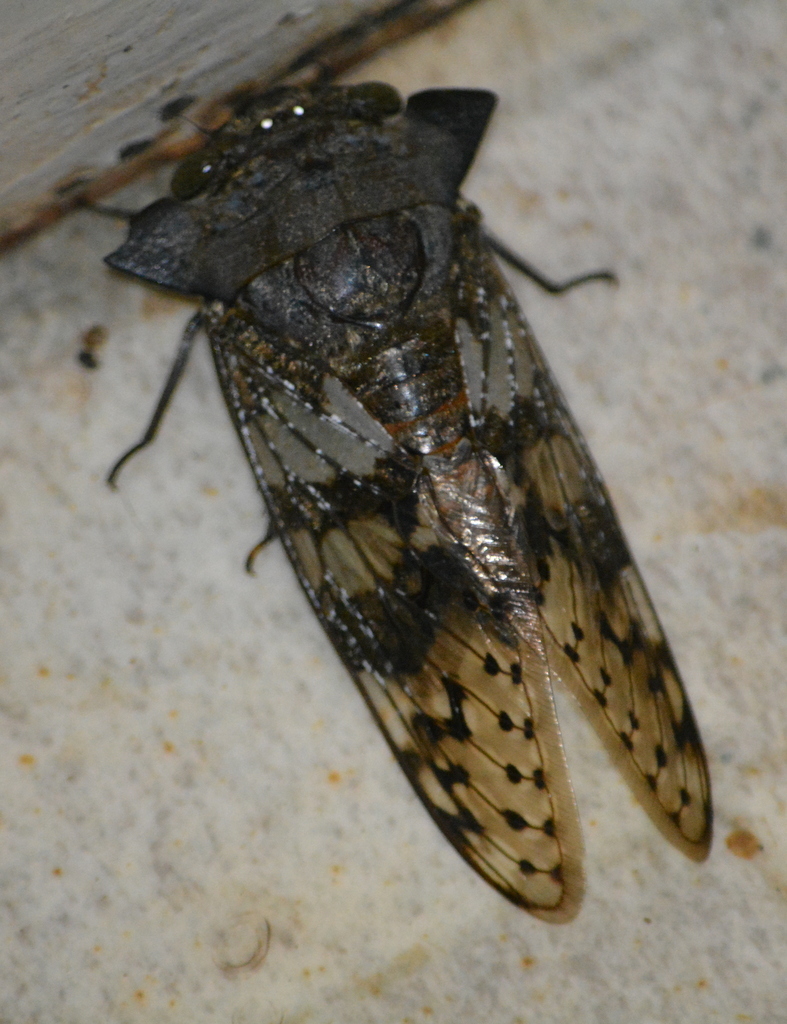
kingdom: Animalia
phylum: Arthropoda
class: Insecta
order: Hemiptera
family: Cicadidae
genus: Ioba
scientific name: Ioba leopardina
